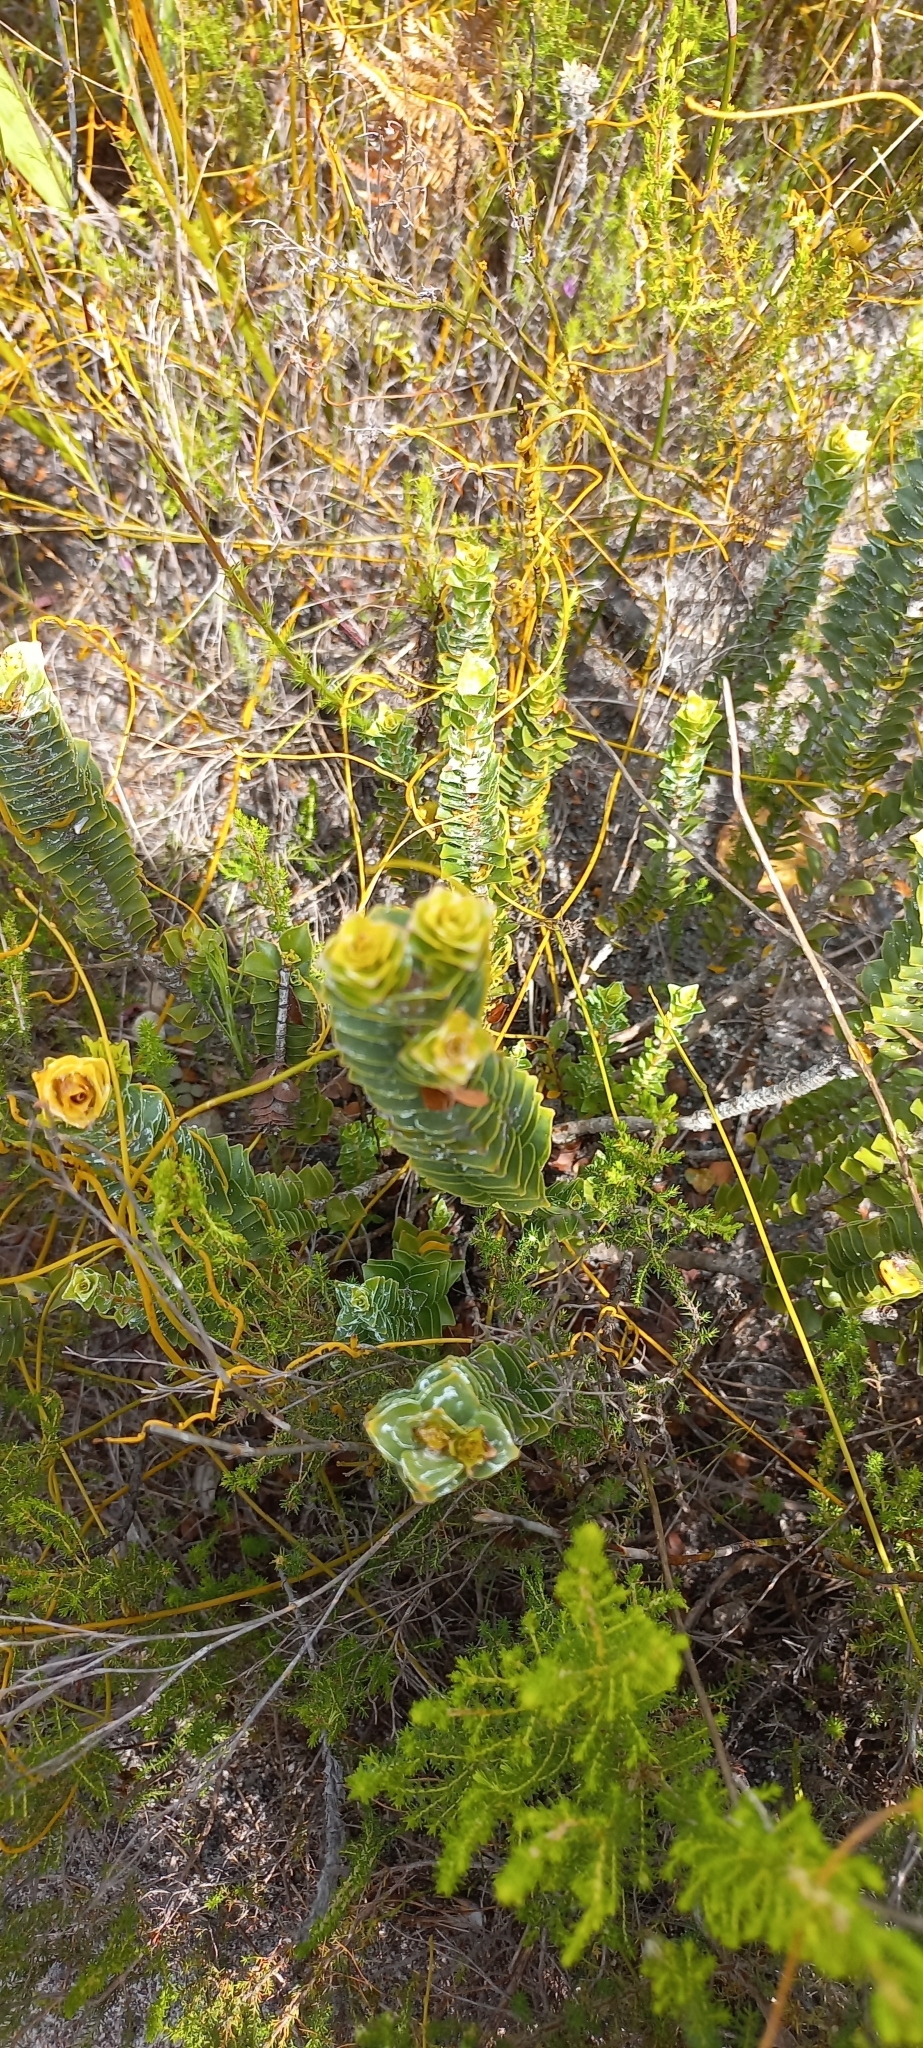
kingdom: Plantae
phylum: Tracheophyta
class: Magnoliopsida
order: Myrtales
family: Penaeaceae
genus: Saltera
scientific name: Saltera sarcocolla
